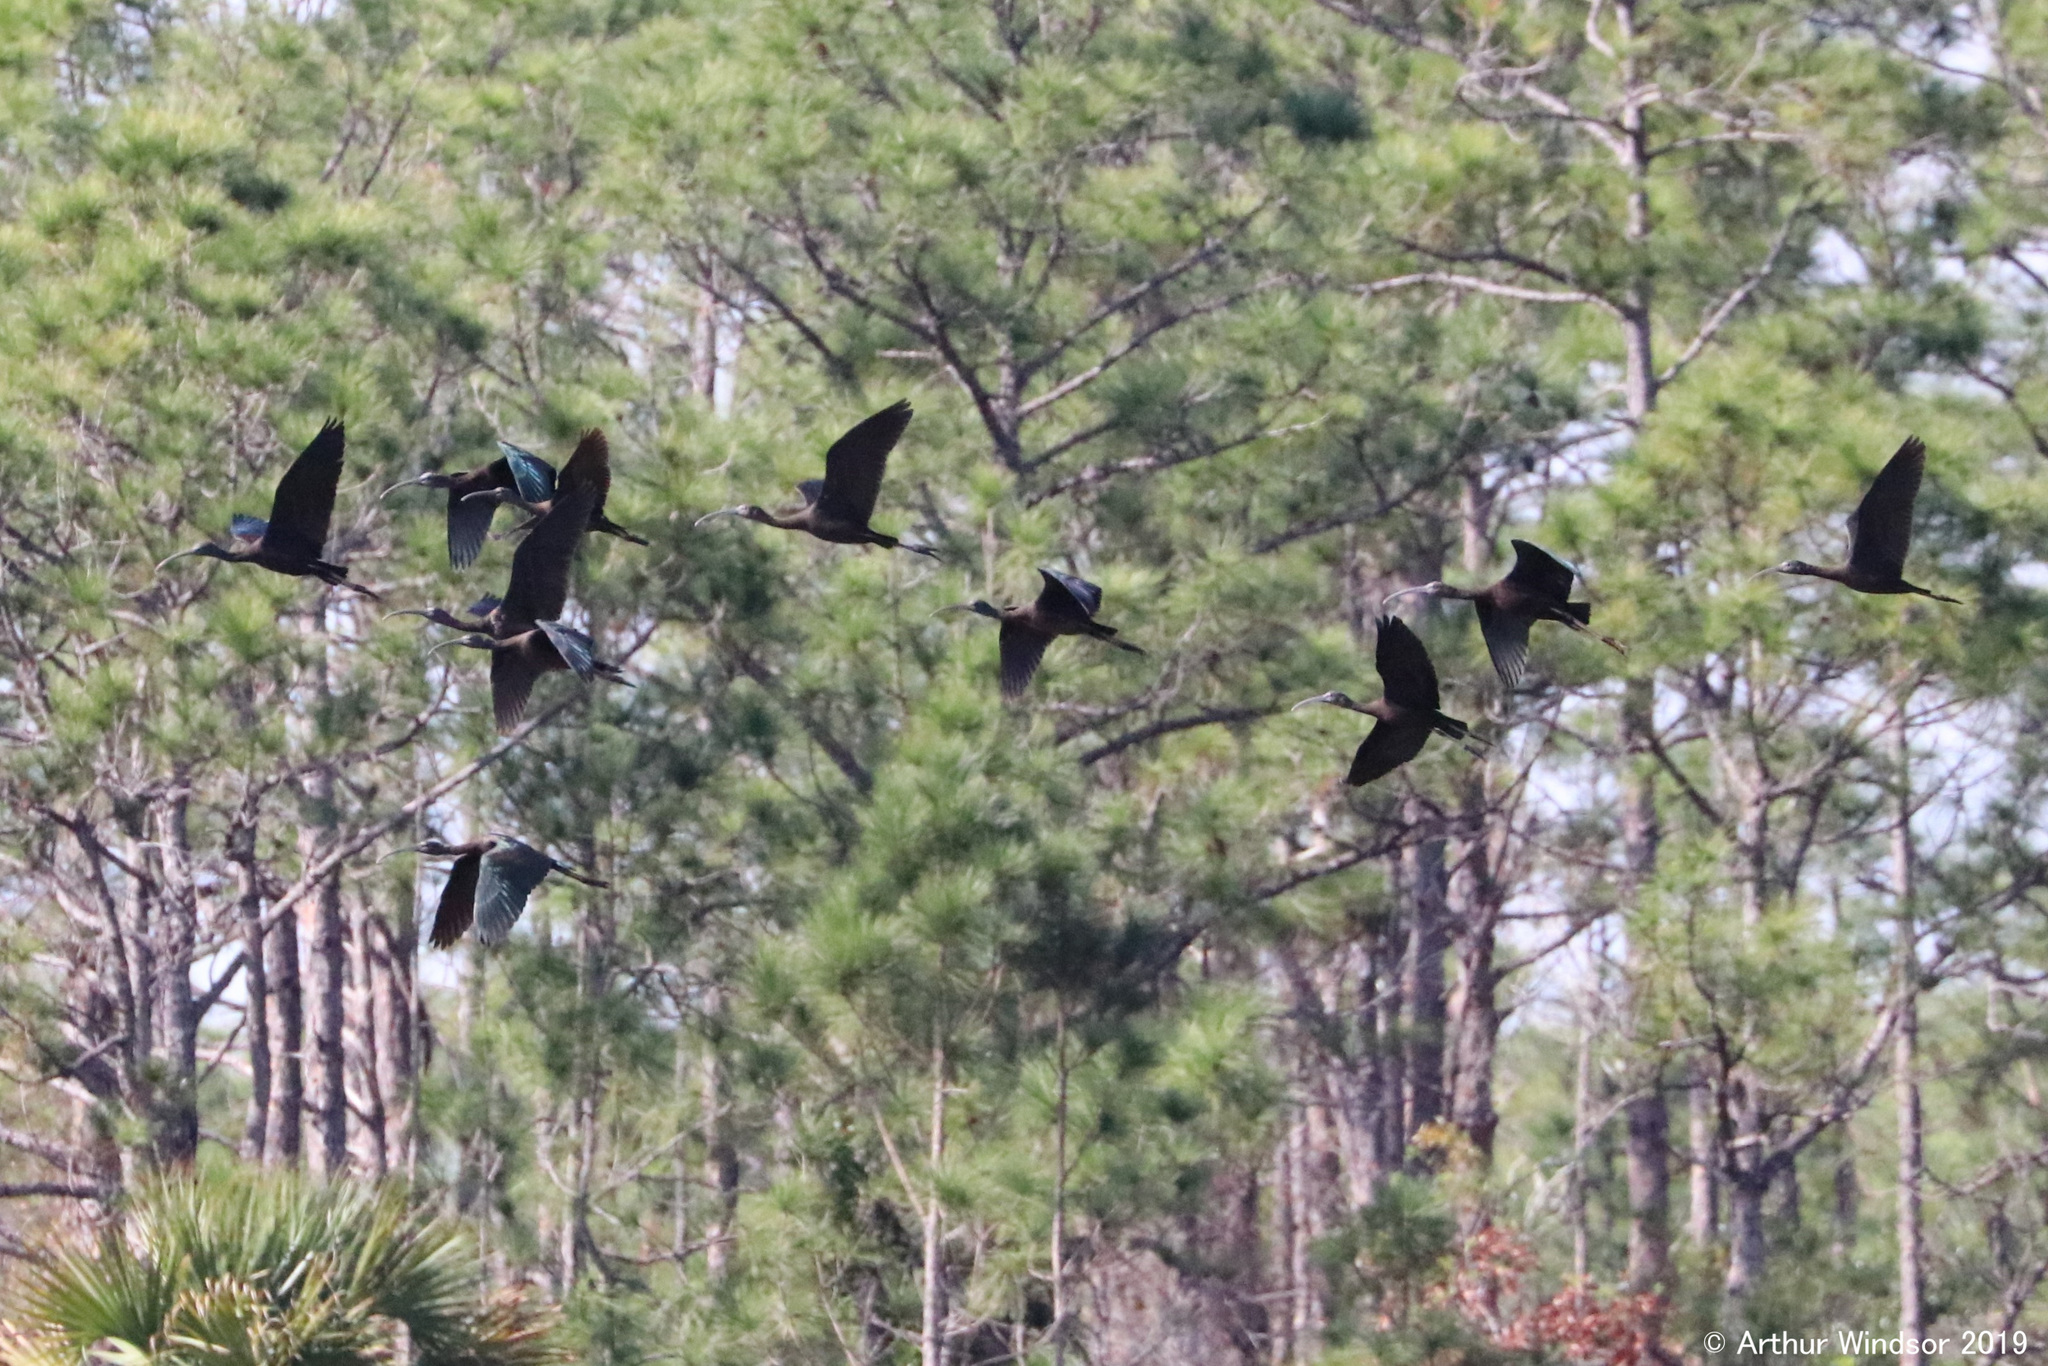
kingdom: Animalia
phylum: Chordata
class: Aves
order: Pelecaniformes
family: Threskiornithidae
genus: Plegadis
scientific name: Plegadis falcinellus
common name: Glossy ibis
